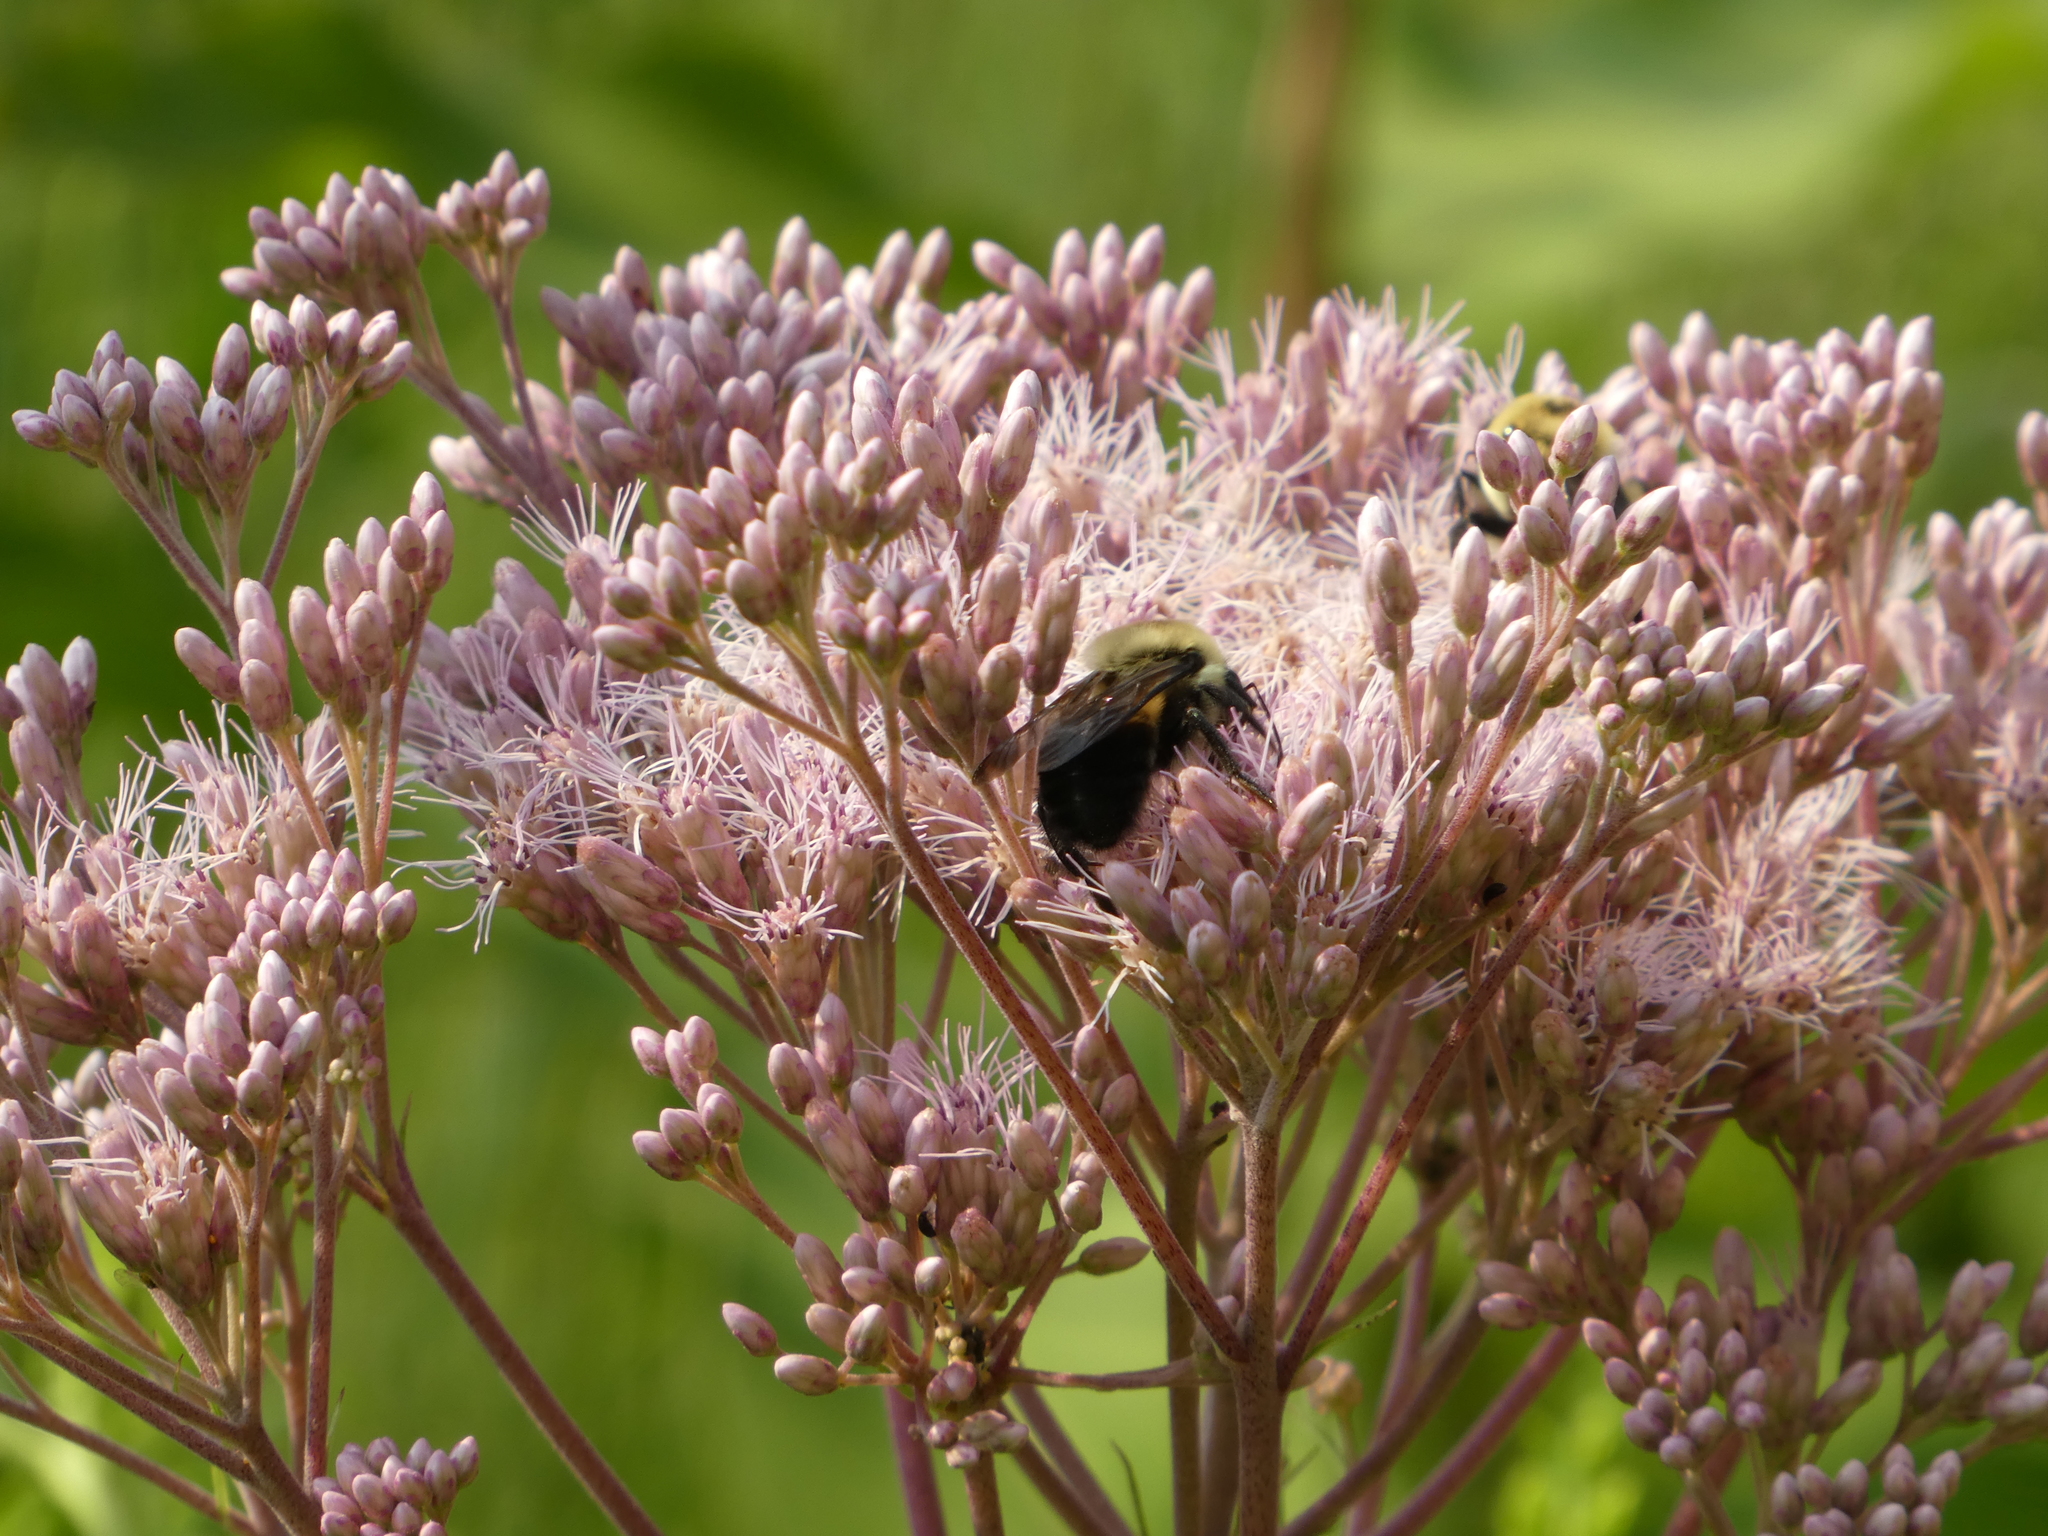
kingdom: Animalia
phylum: Arthropoda
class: Insecta
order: Hymenoptera
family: Apidae
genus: Bombus
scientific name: Bombus griseocollis
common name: Brown-belted bumble bee
